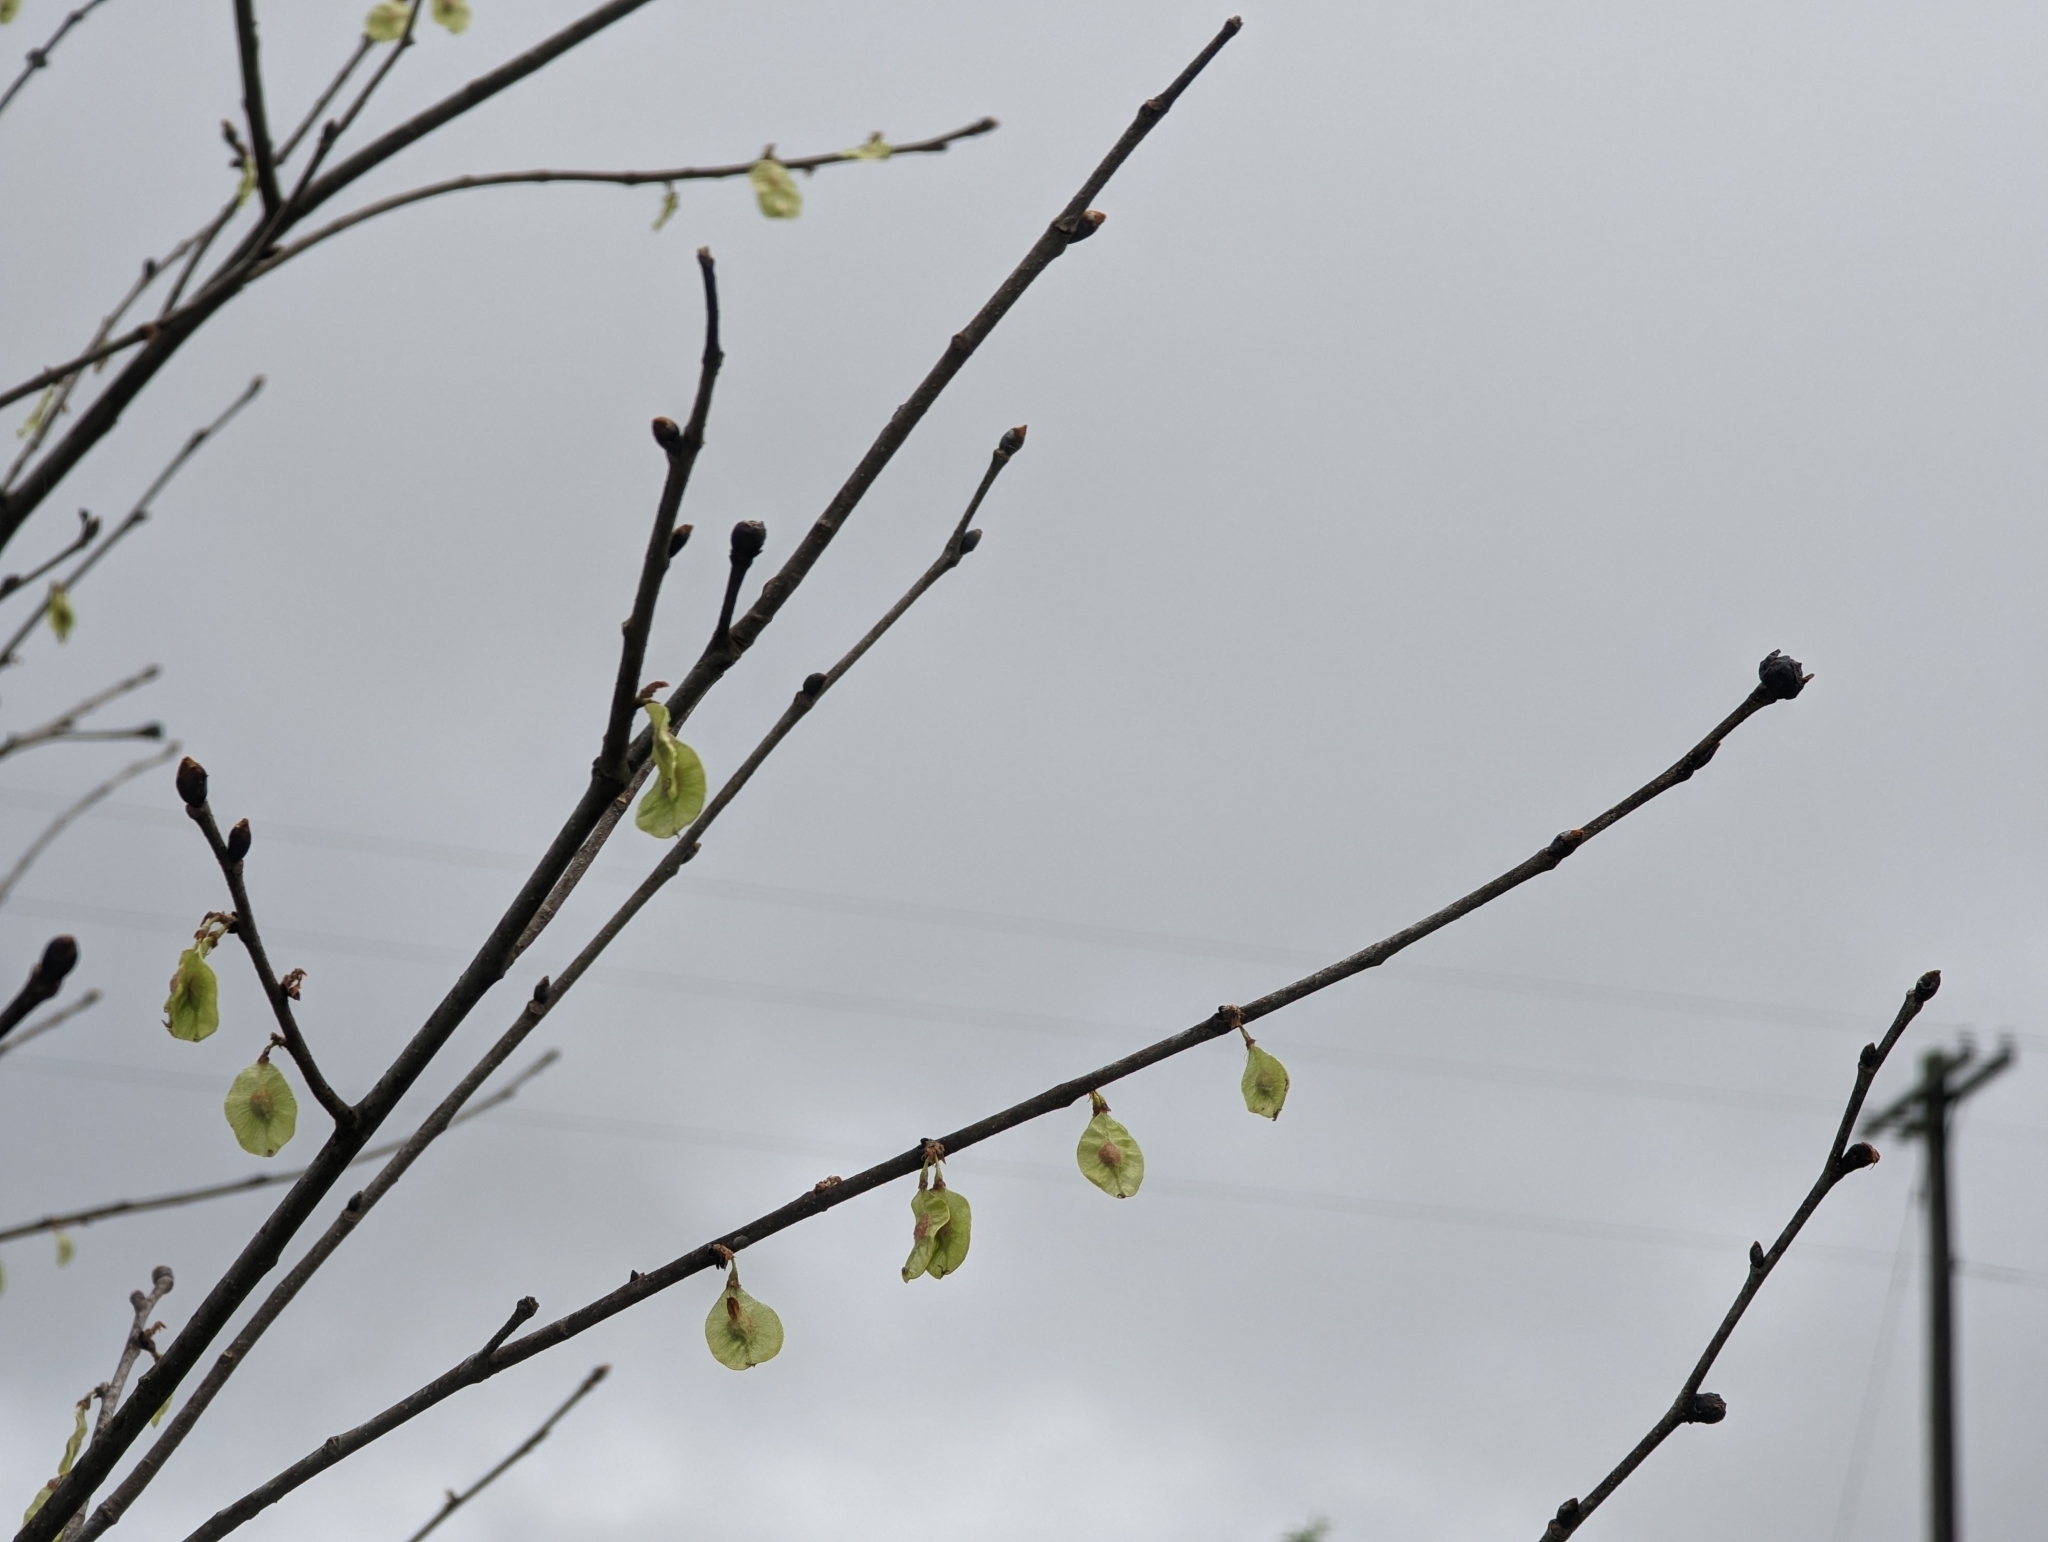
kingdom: Plantae
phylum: Tracheophyta
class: Magnoliopsida
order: Rosales
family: Ulmaceae
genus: Ulmus
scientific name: Ulmus rubra
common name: Slippery elm
